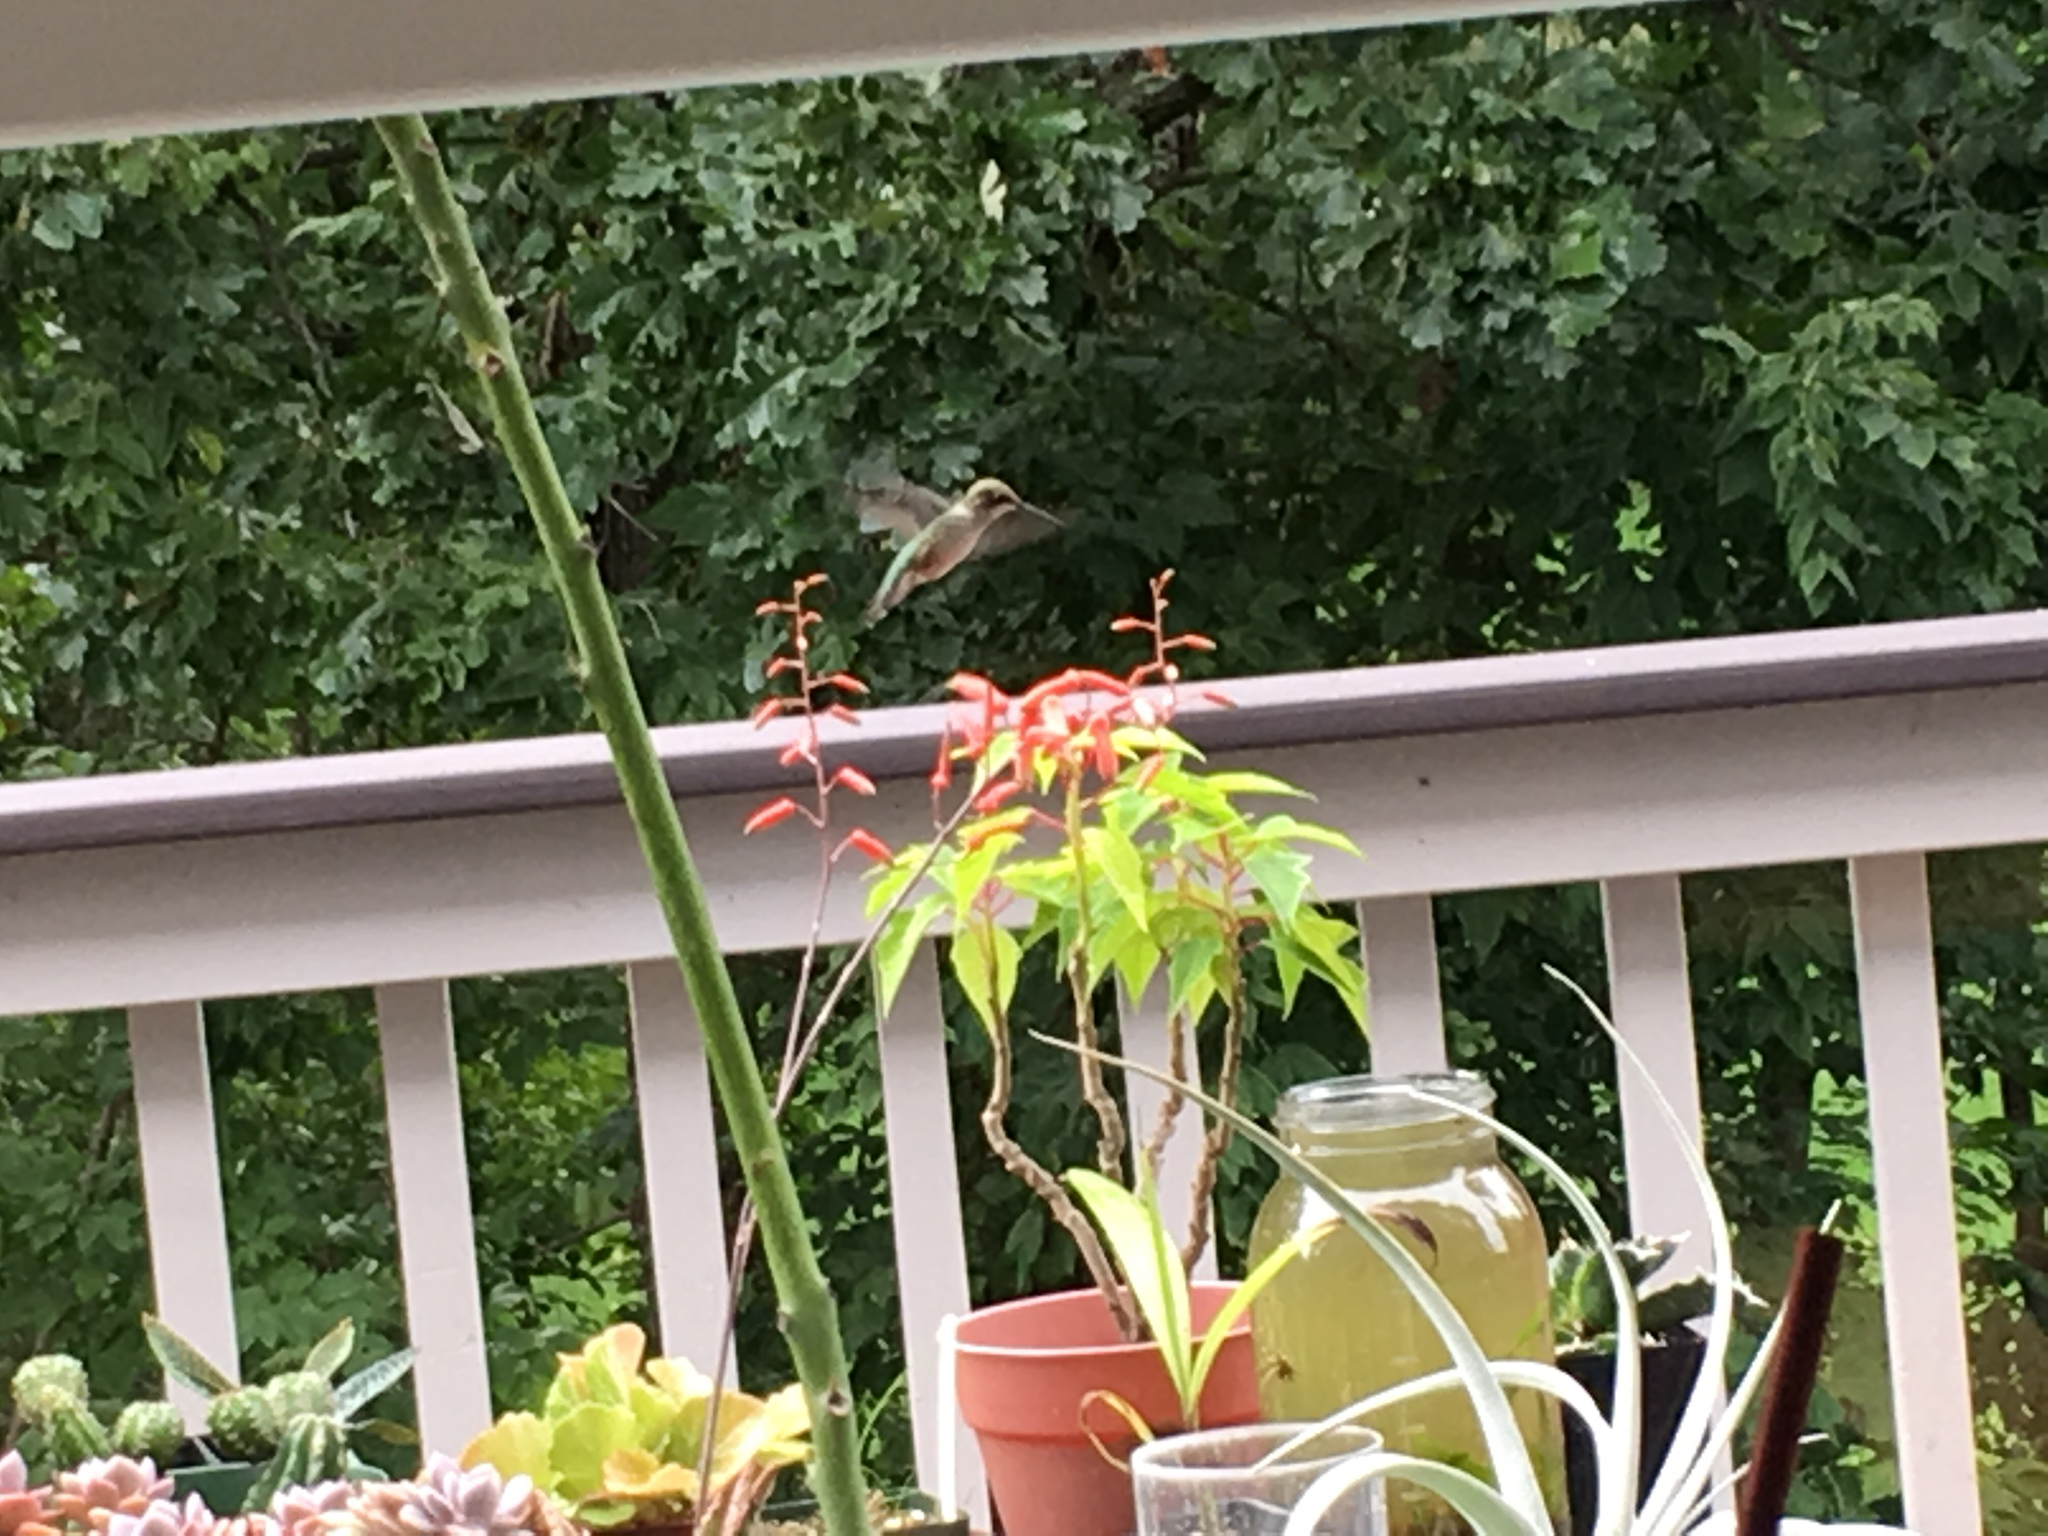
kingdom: Animalia
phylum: Chordata
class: Aves
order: Apodiformes
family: Trochilidae
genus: Archilochus
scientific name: Archilochus colubris
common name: Ruby-throated hummingbird
